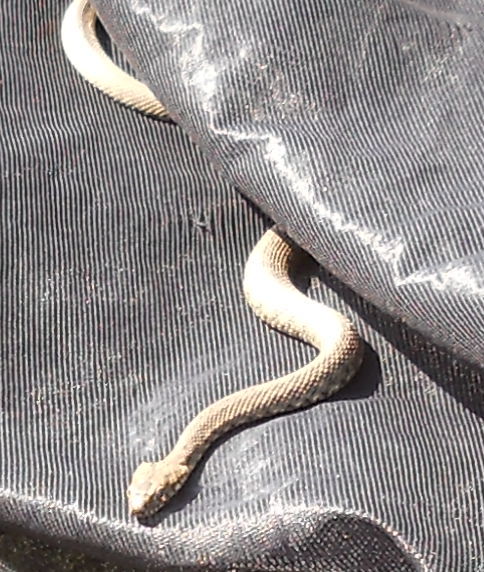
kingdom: Animalia
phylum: Chordata
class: Squamata
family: Colubridae
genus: Natrix
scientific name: Natrix tessellata
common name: Dice snake
